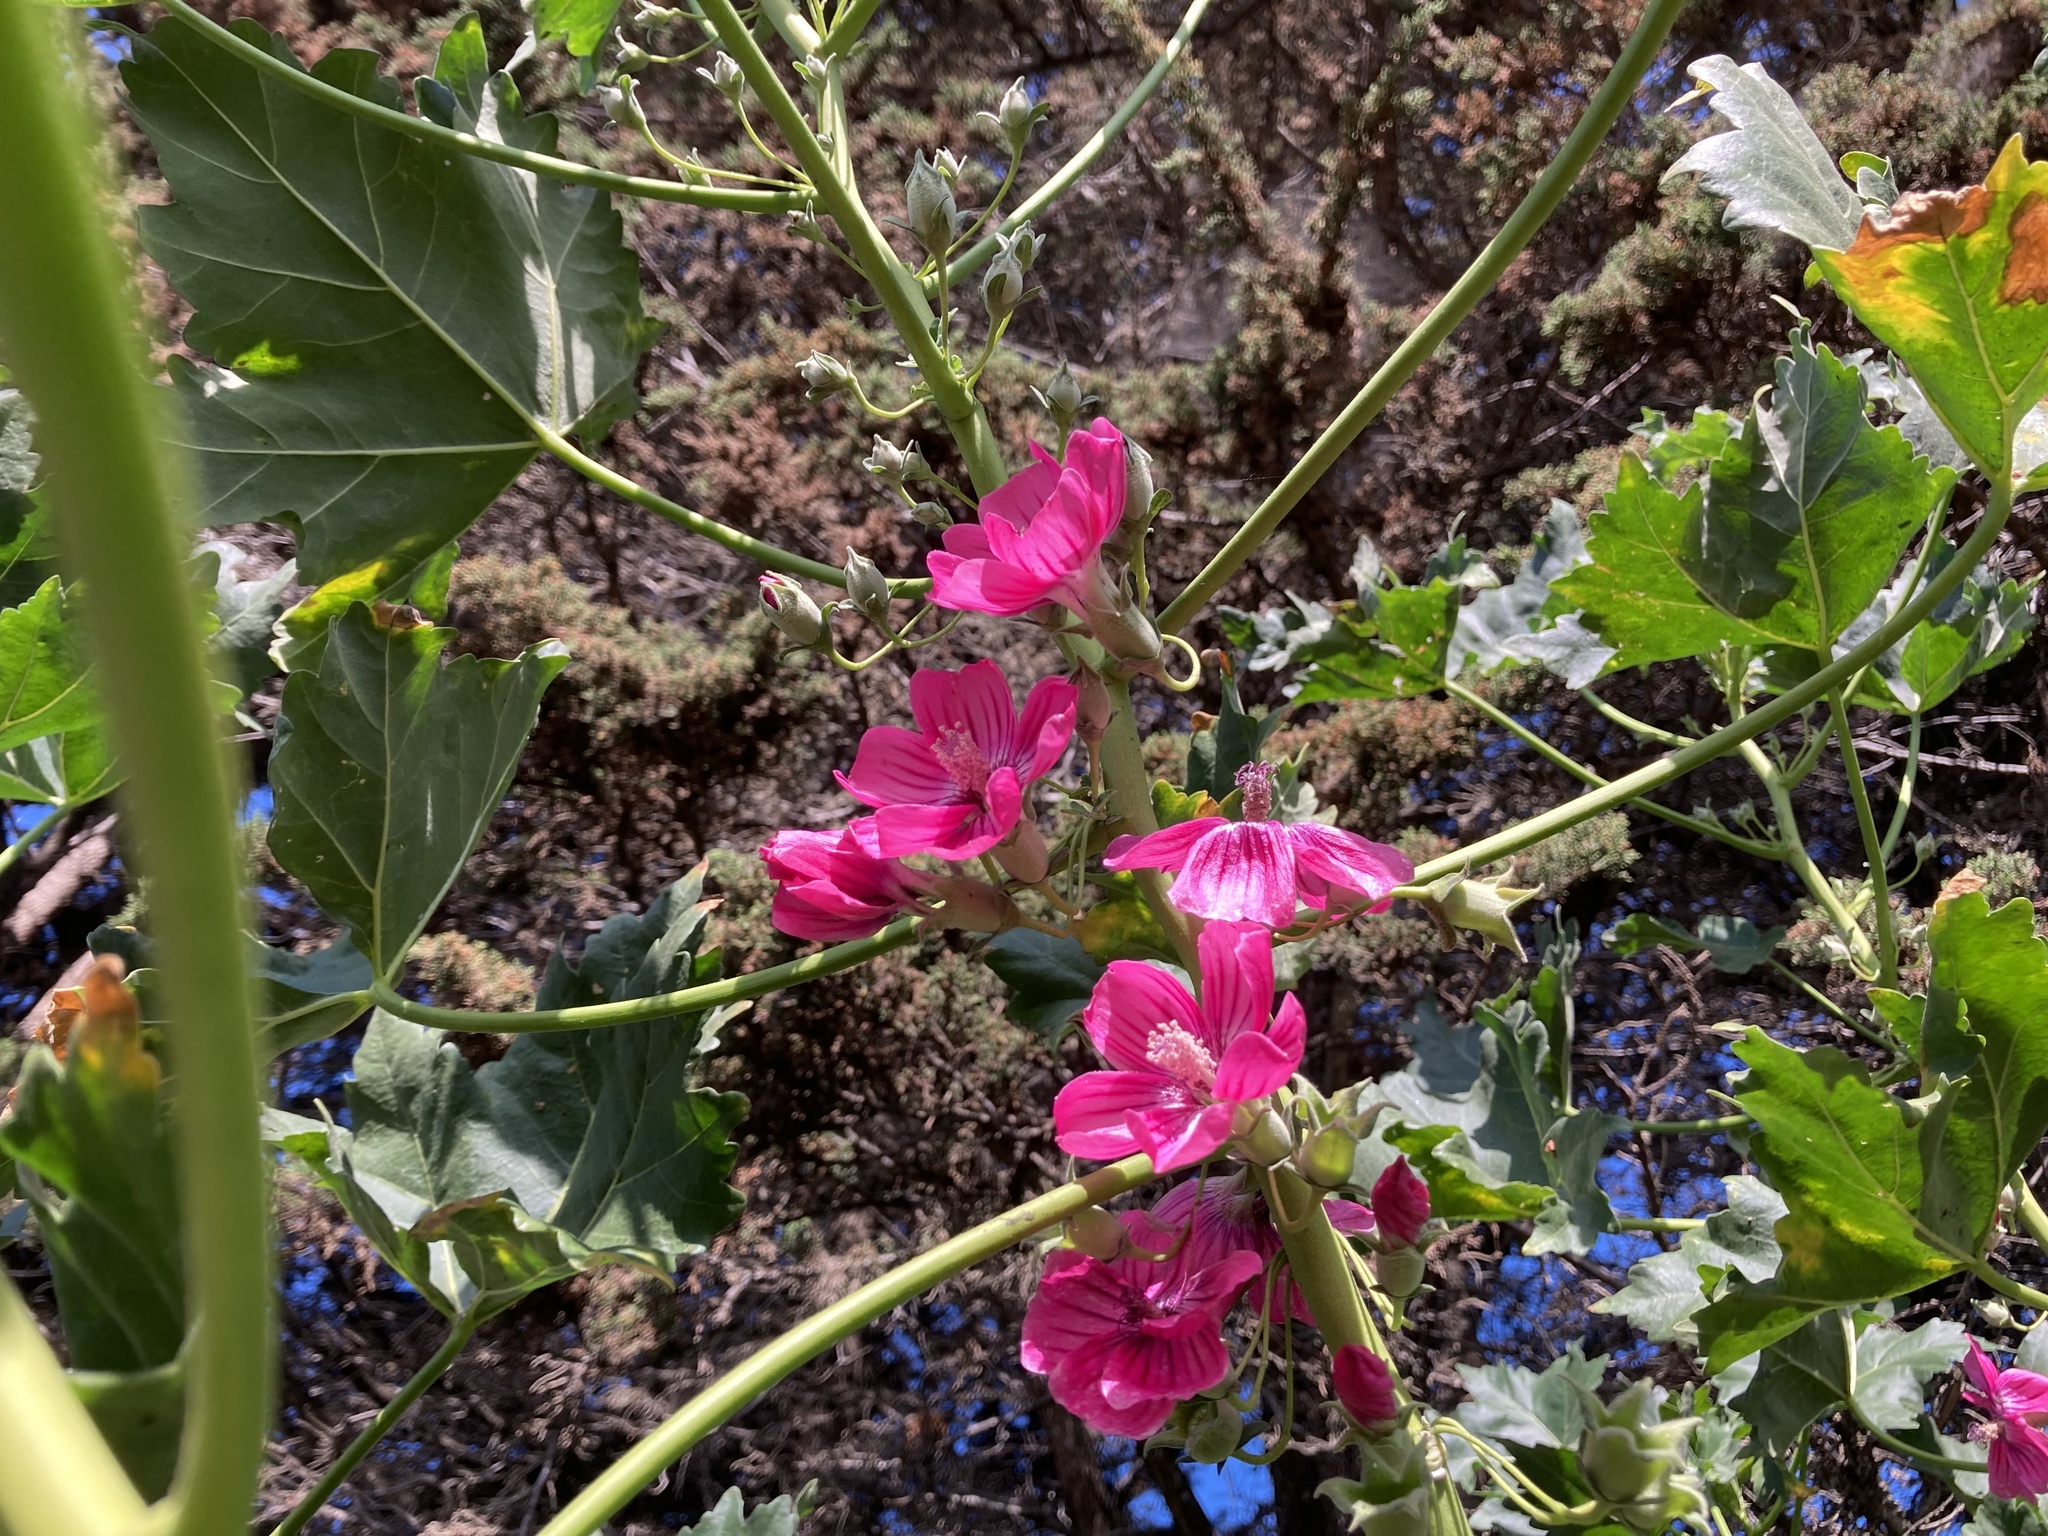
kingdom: Plantae
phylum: Tracheophyta
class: Magnoliopsida
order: Malvales
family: Malvaceae
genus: Malva
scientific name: Malva assurgentiflora
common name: Island mallow
